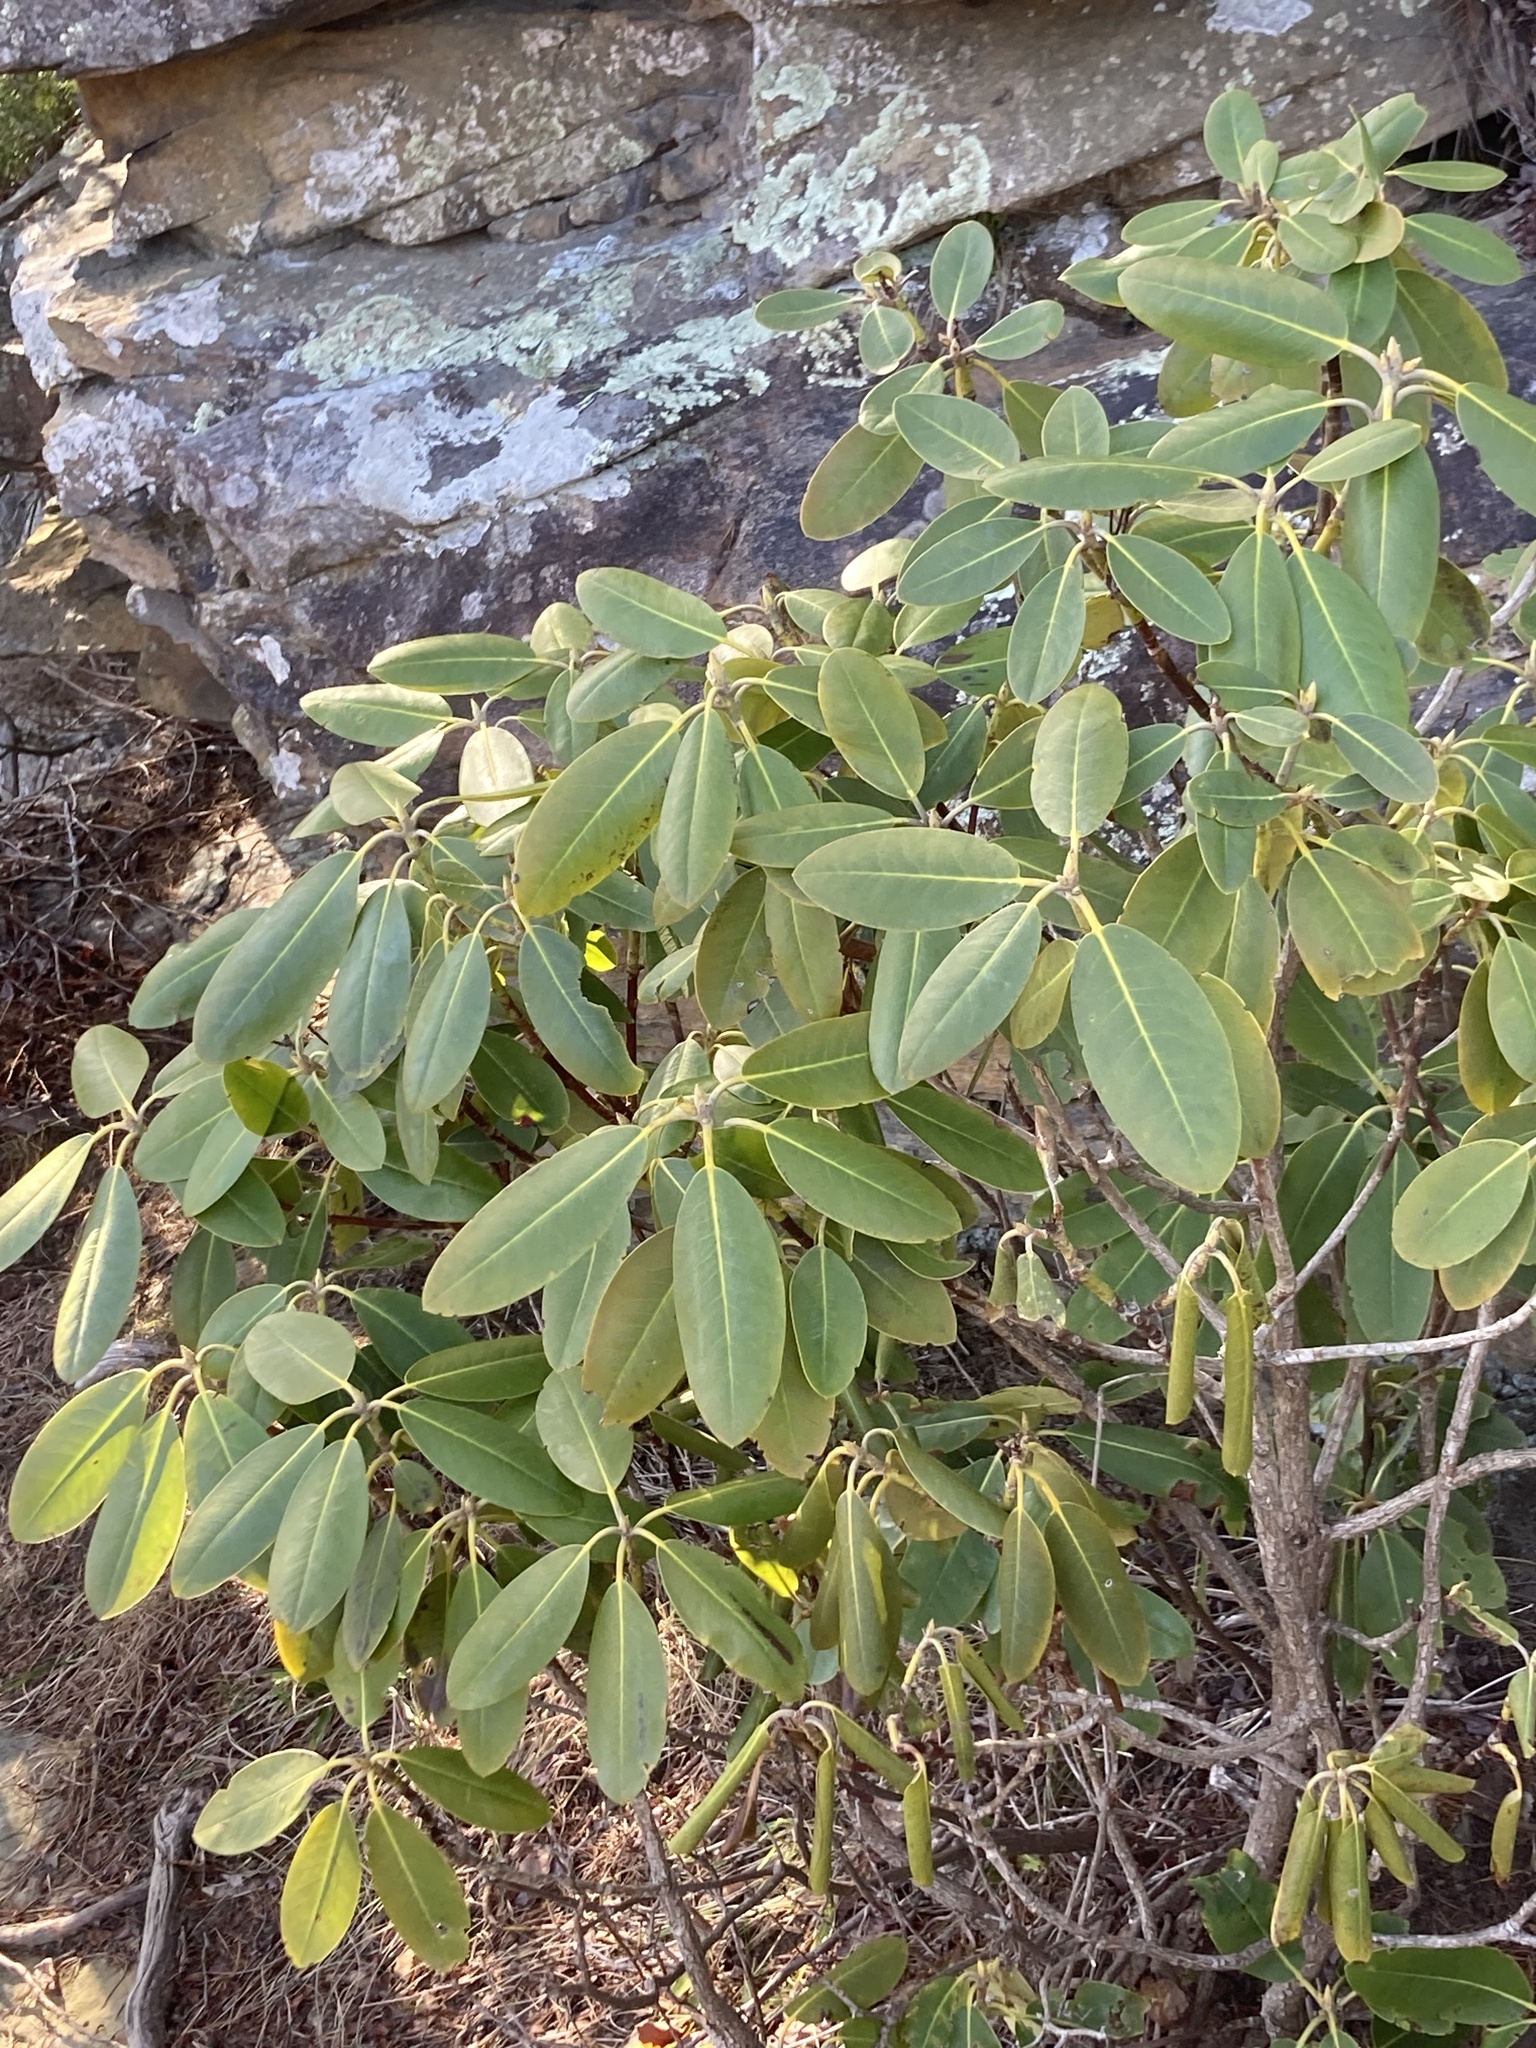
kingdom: Plantae
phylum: Tracheophyta
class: Magnoliopsida
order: Ericales
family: Ericaceae
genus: Rhododendron
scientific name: Rhododendron catawbiense
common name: Catawba rhododendron
